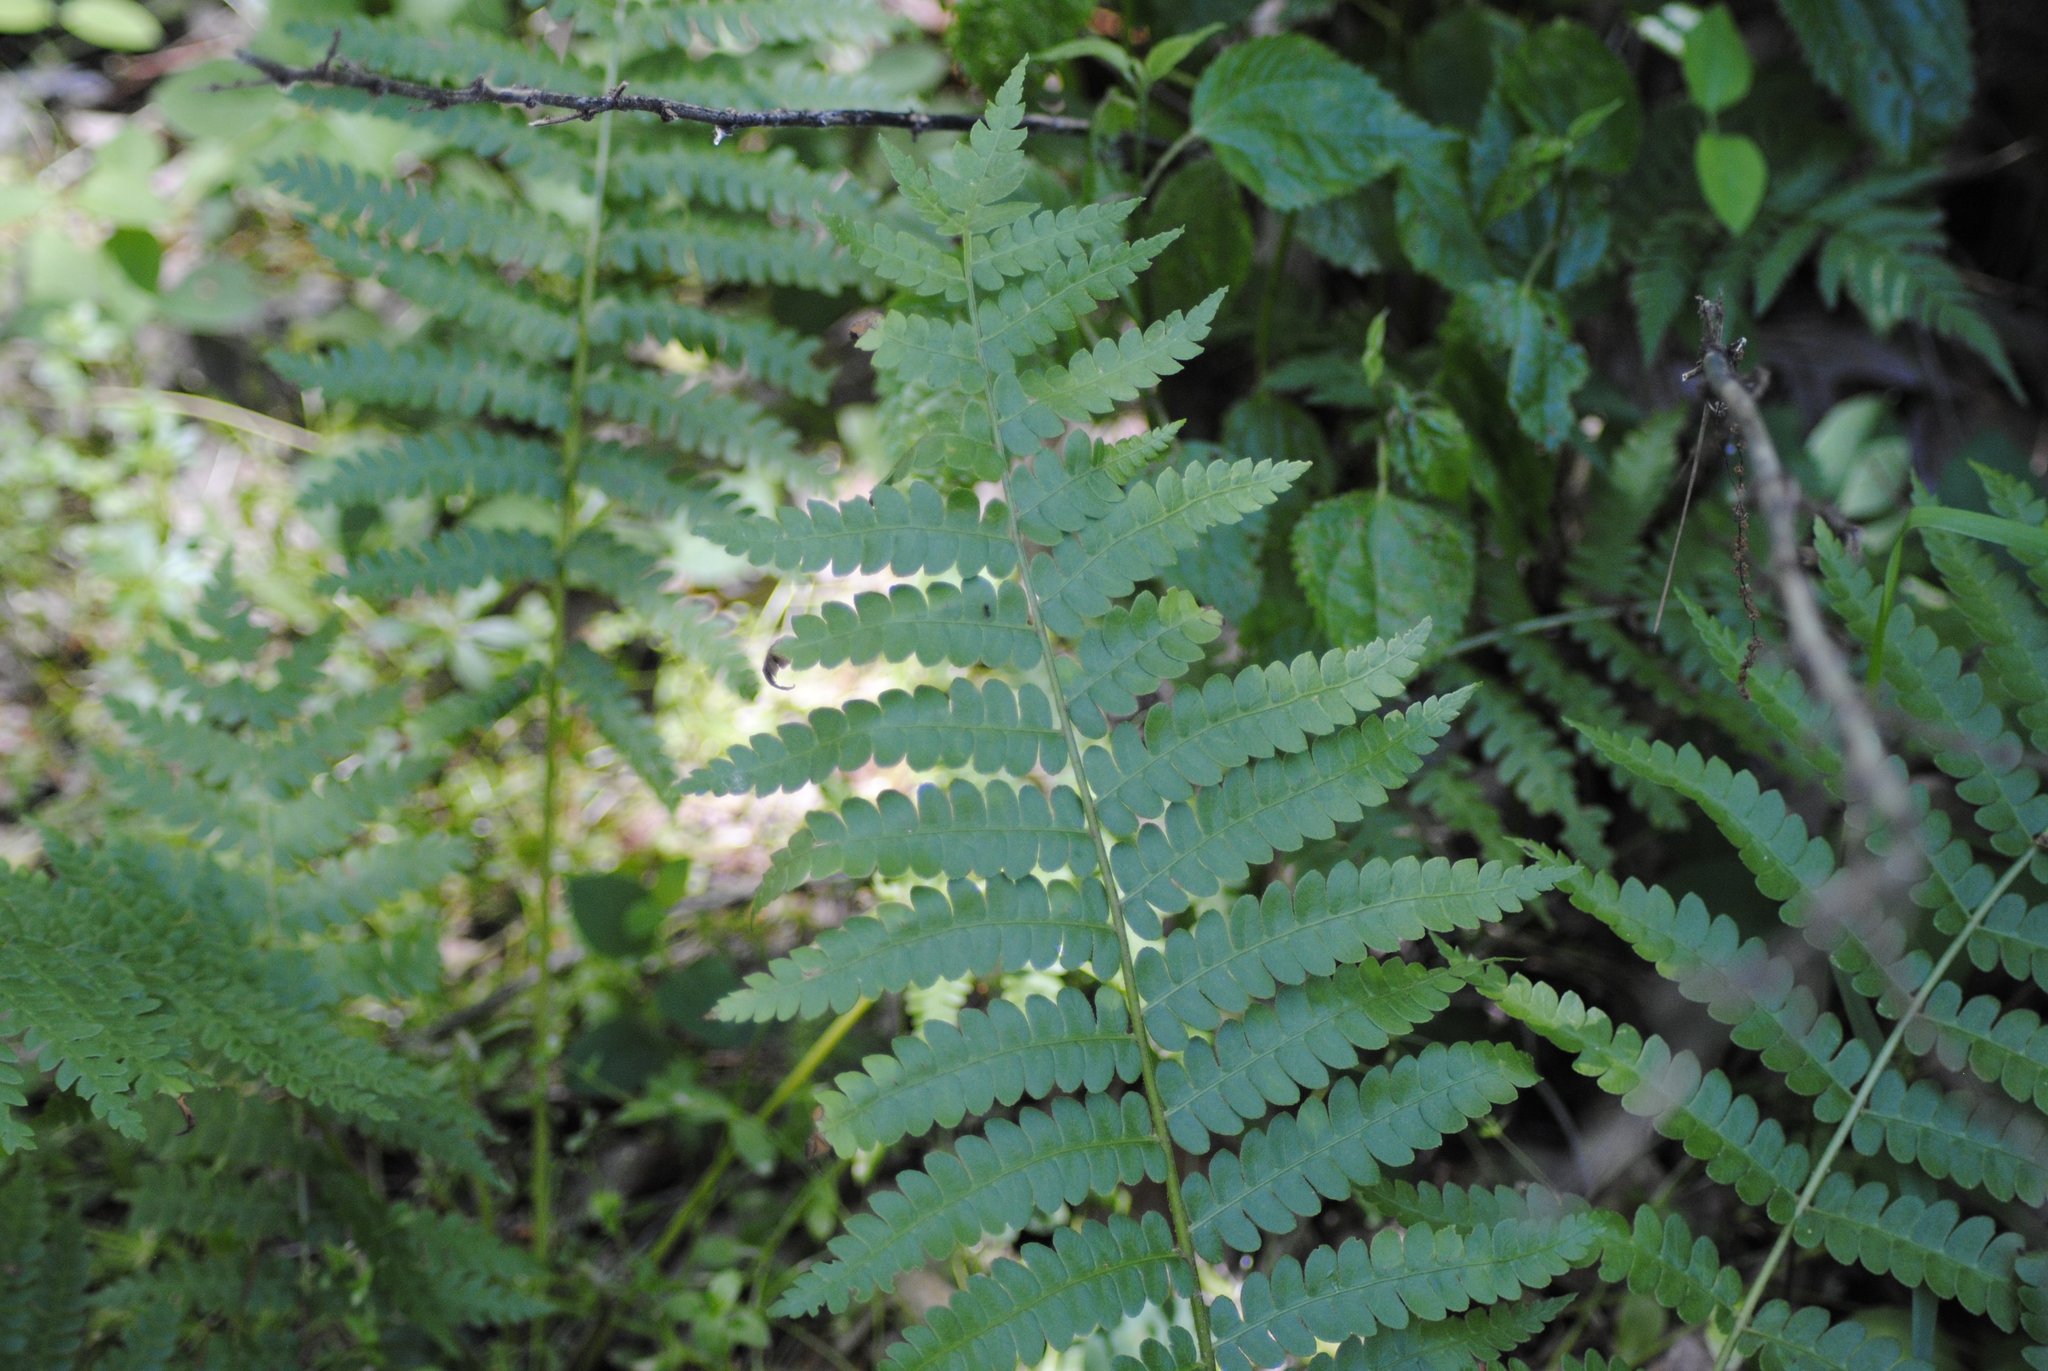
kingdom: Plantae
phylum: Tracheophyta
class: Polypodiopsida
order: Osmundales
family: Osmundaceae
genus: Osmundastrum
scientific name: Osmundastrum cinnamomeum
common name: Cinnamon fern
